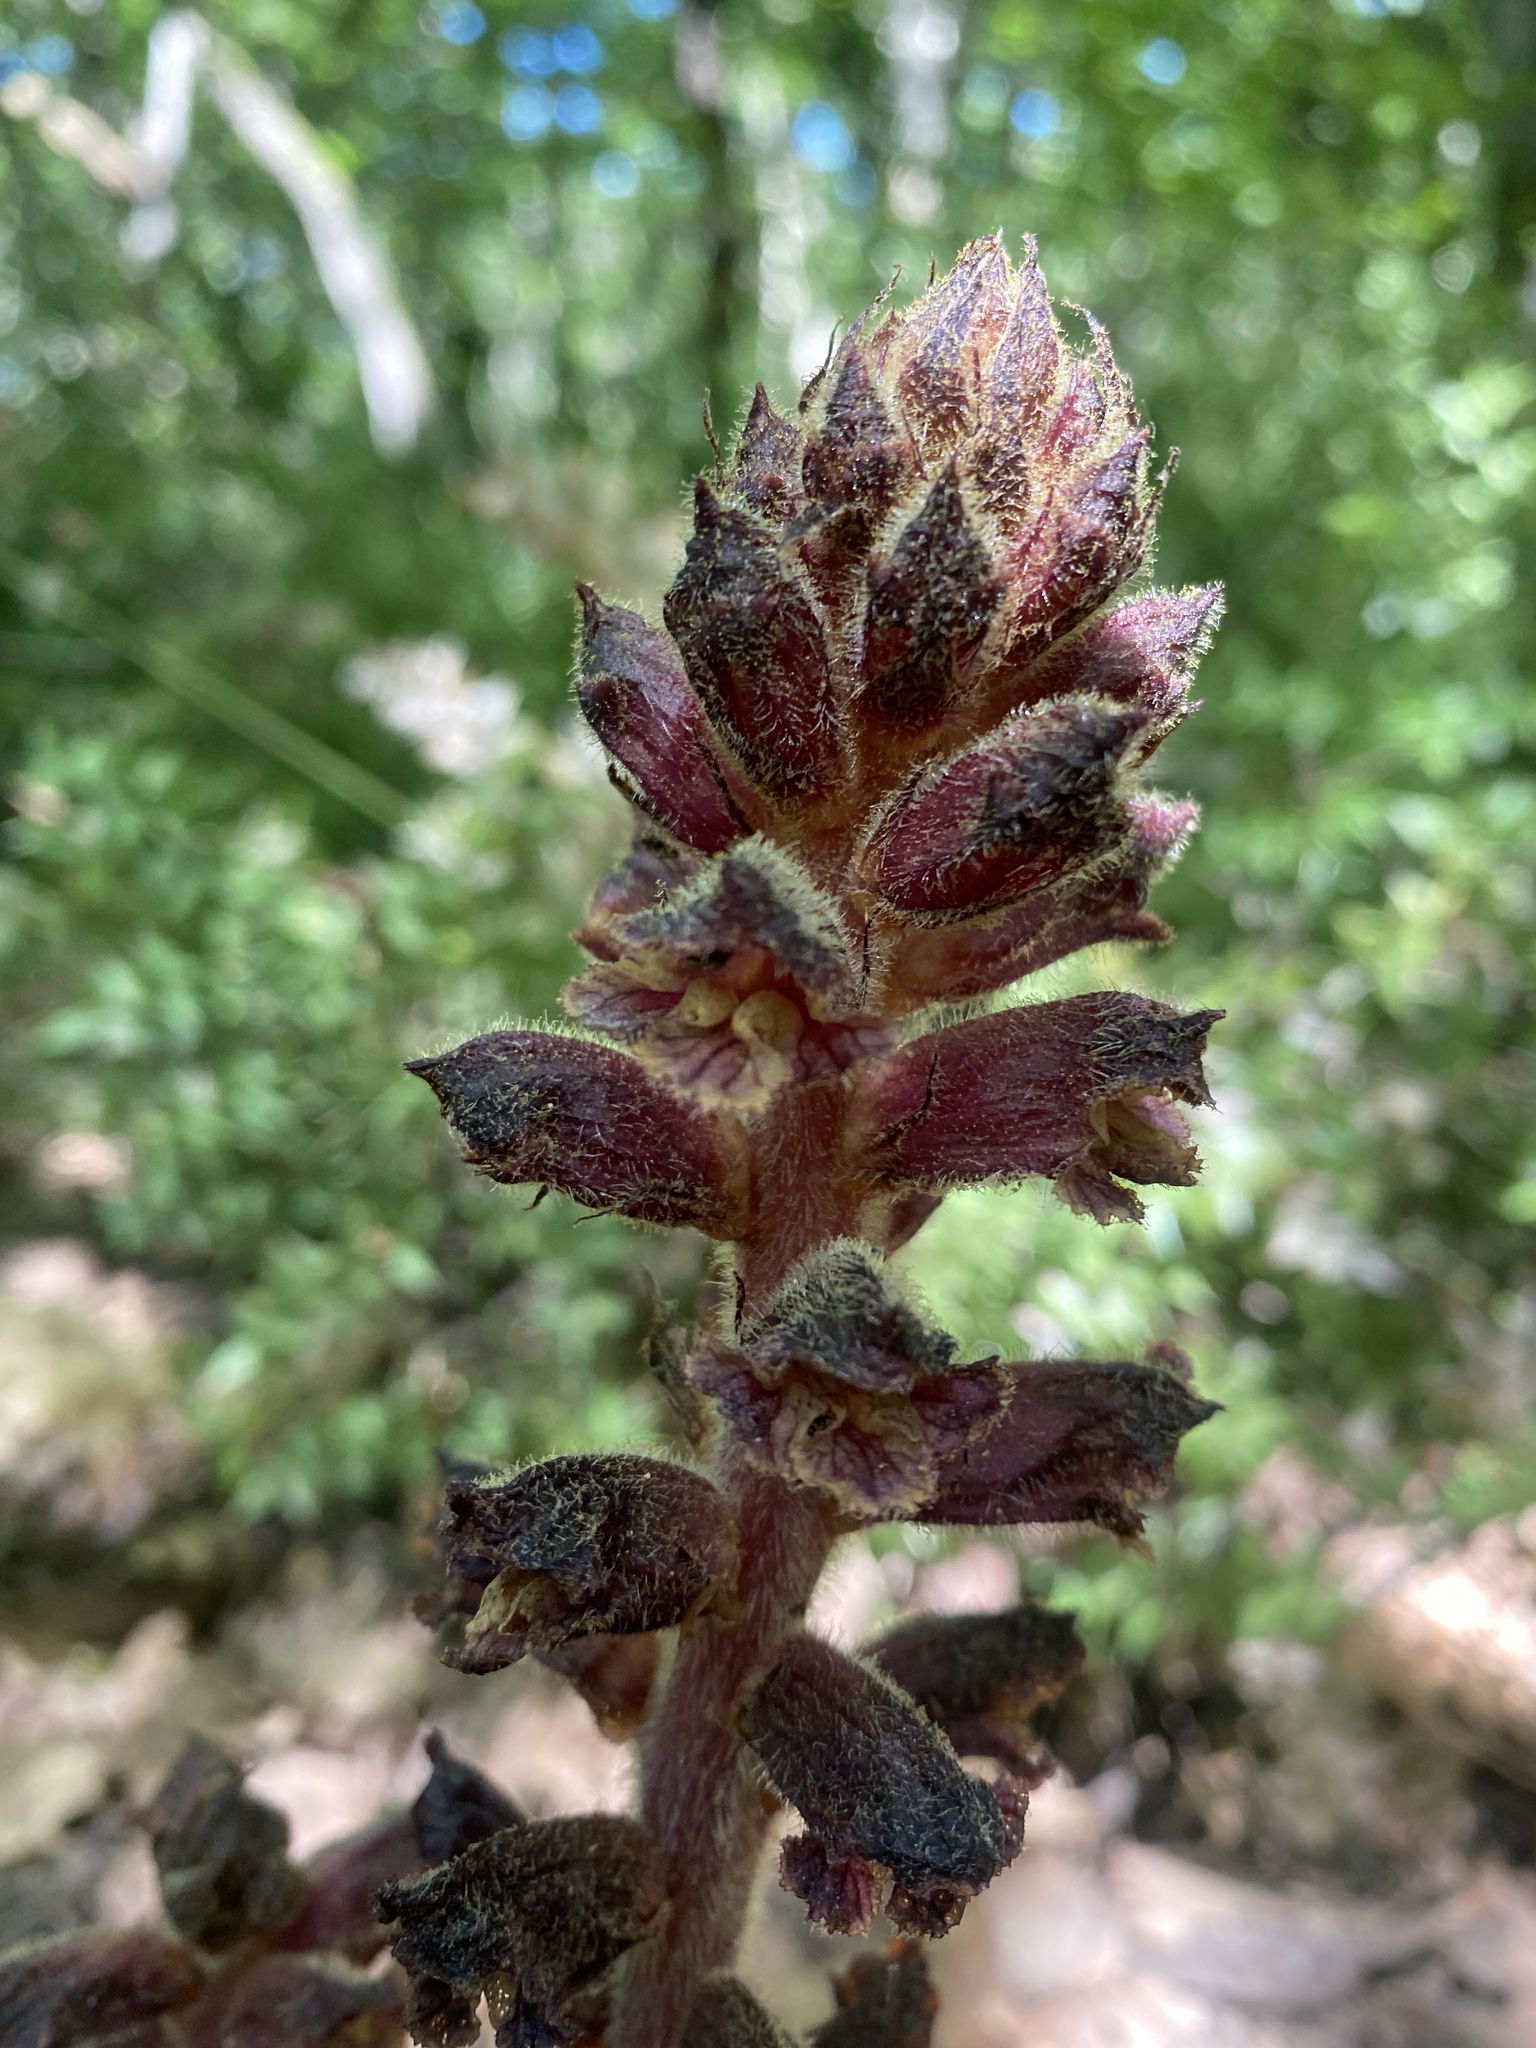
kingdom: Plantae
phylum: Tracheophyta
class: Magnoliopsida
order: Lamiales
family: Orobanchaceae
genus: Orobanche
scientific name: Orobanche laxissima
